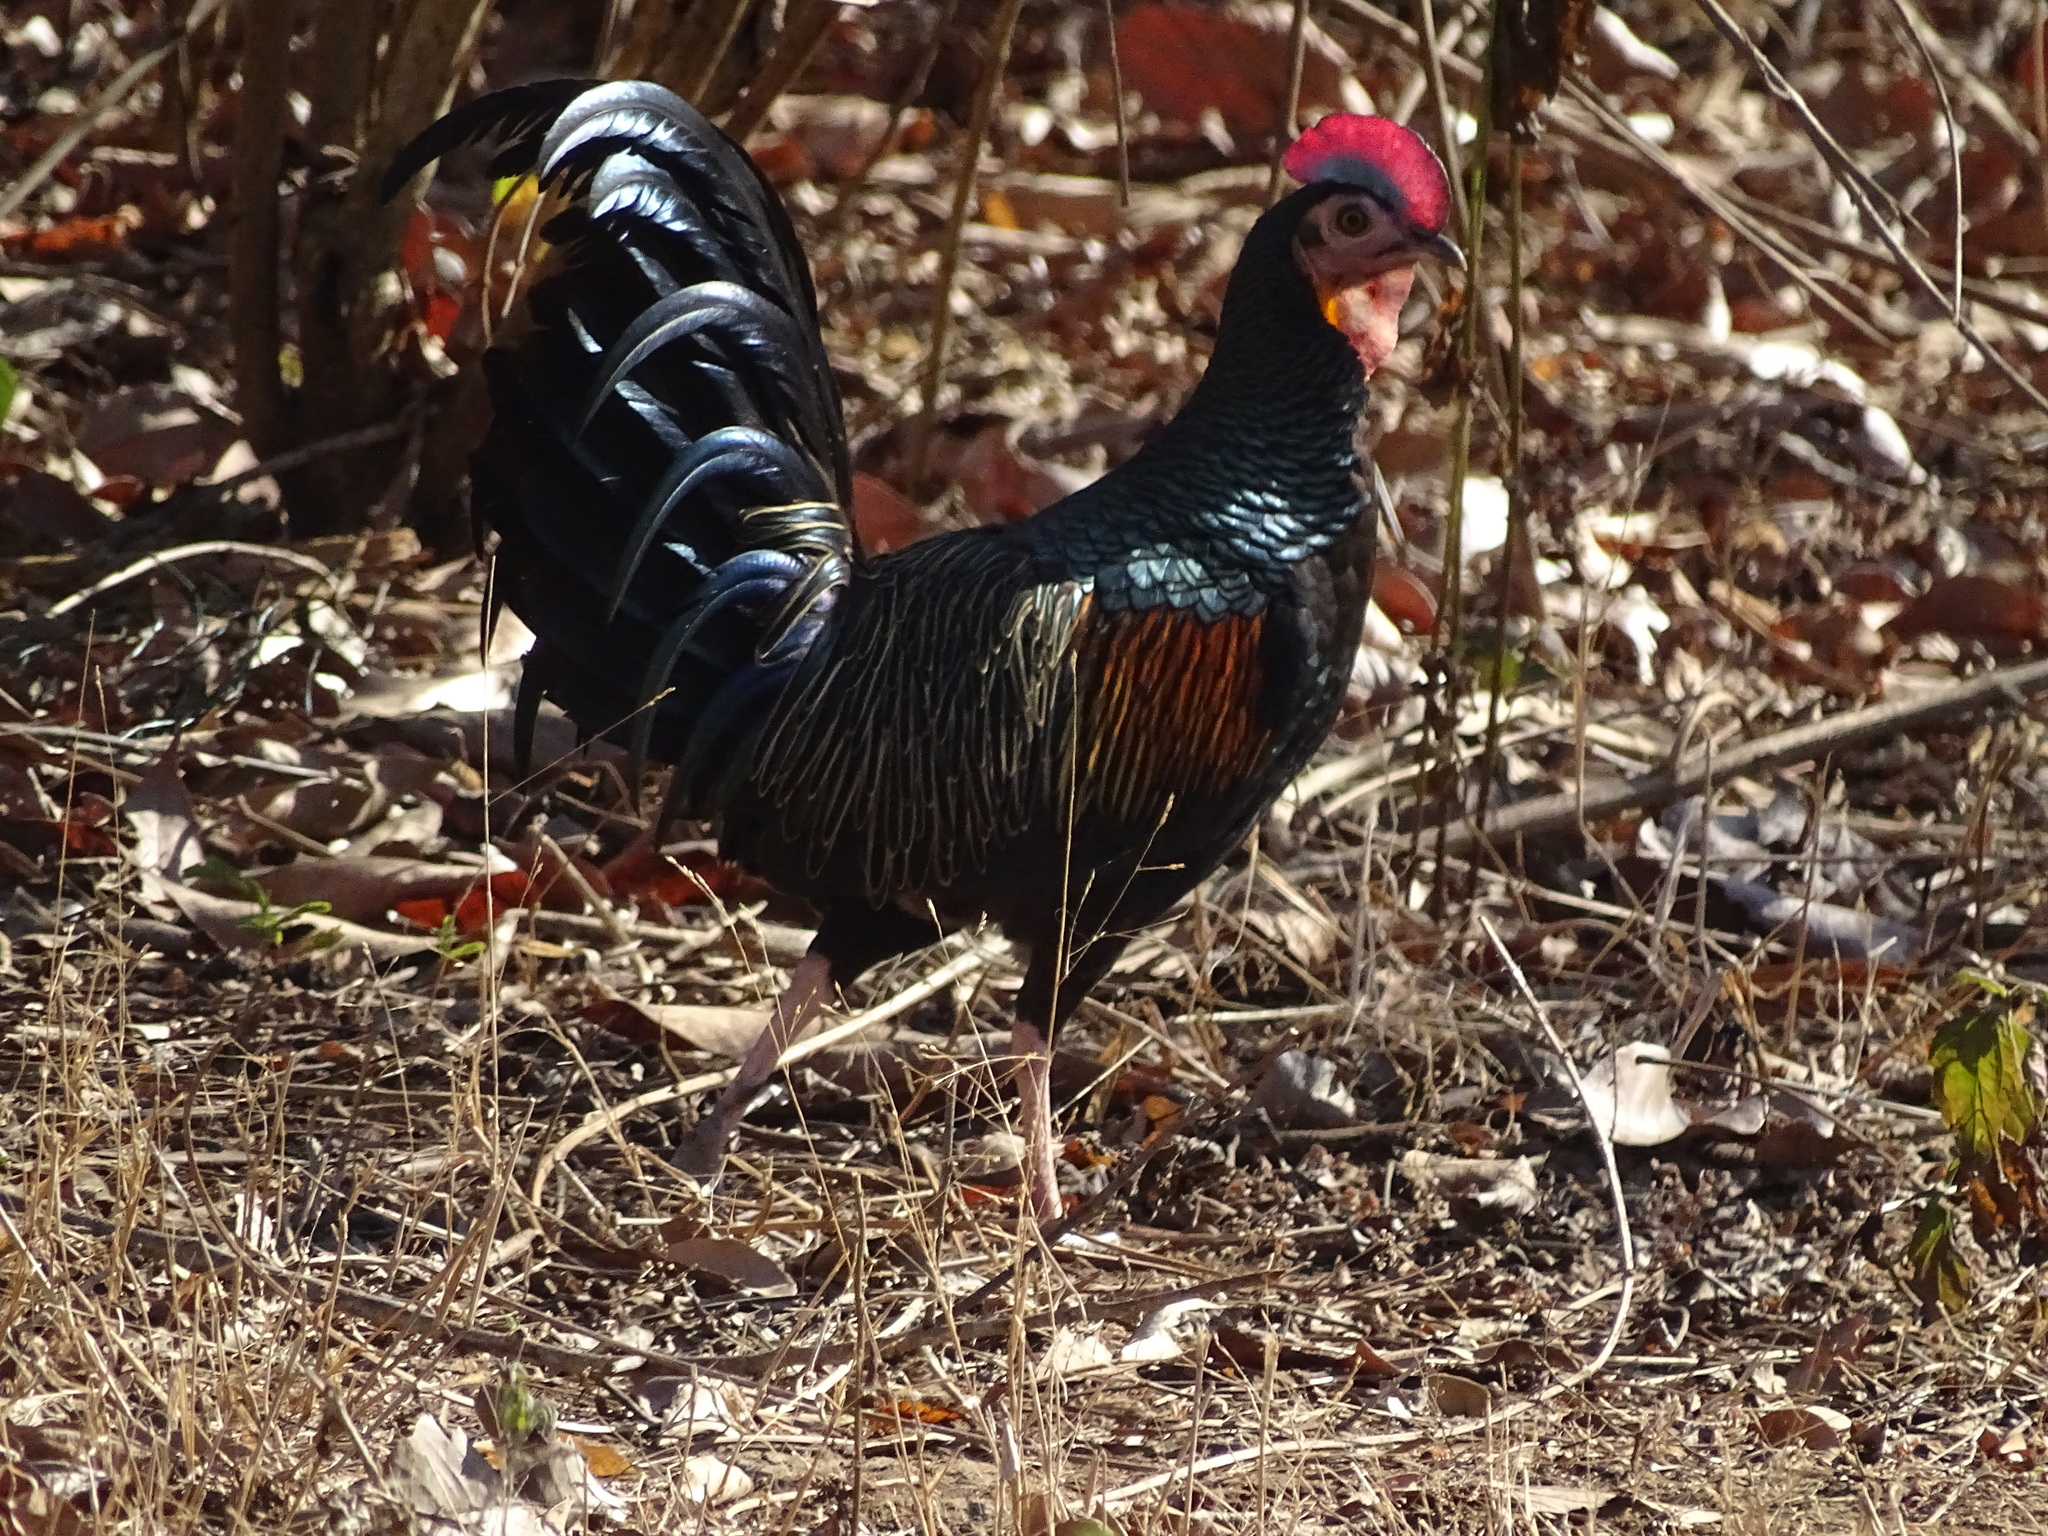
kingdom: Animalia
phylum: Chordata
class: Aves
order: Galliformes
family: Phasianidae
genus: Gallus
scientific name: Gallus varius
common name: Green junglefowl
